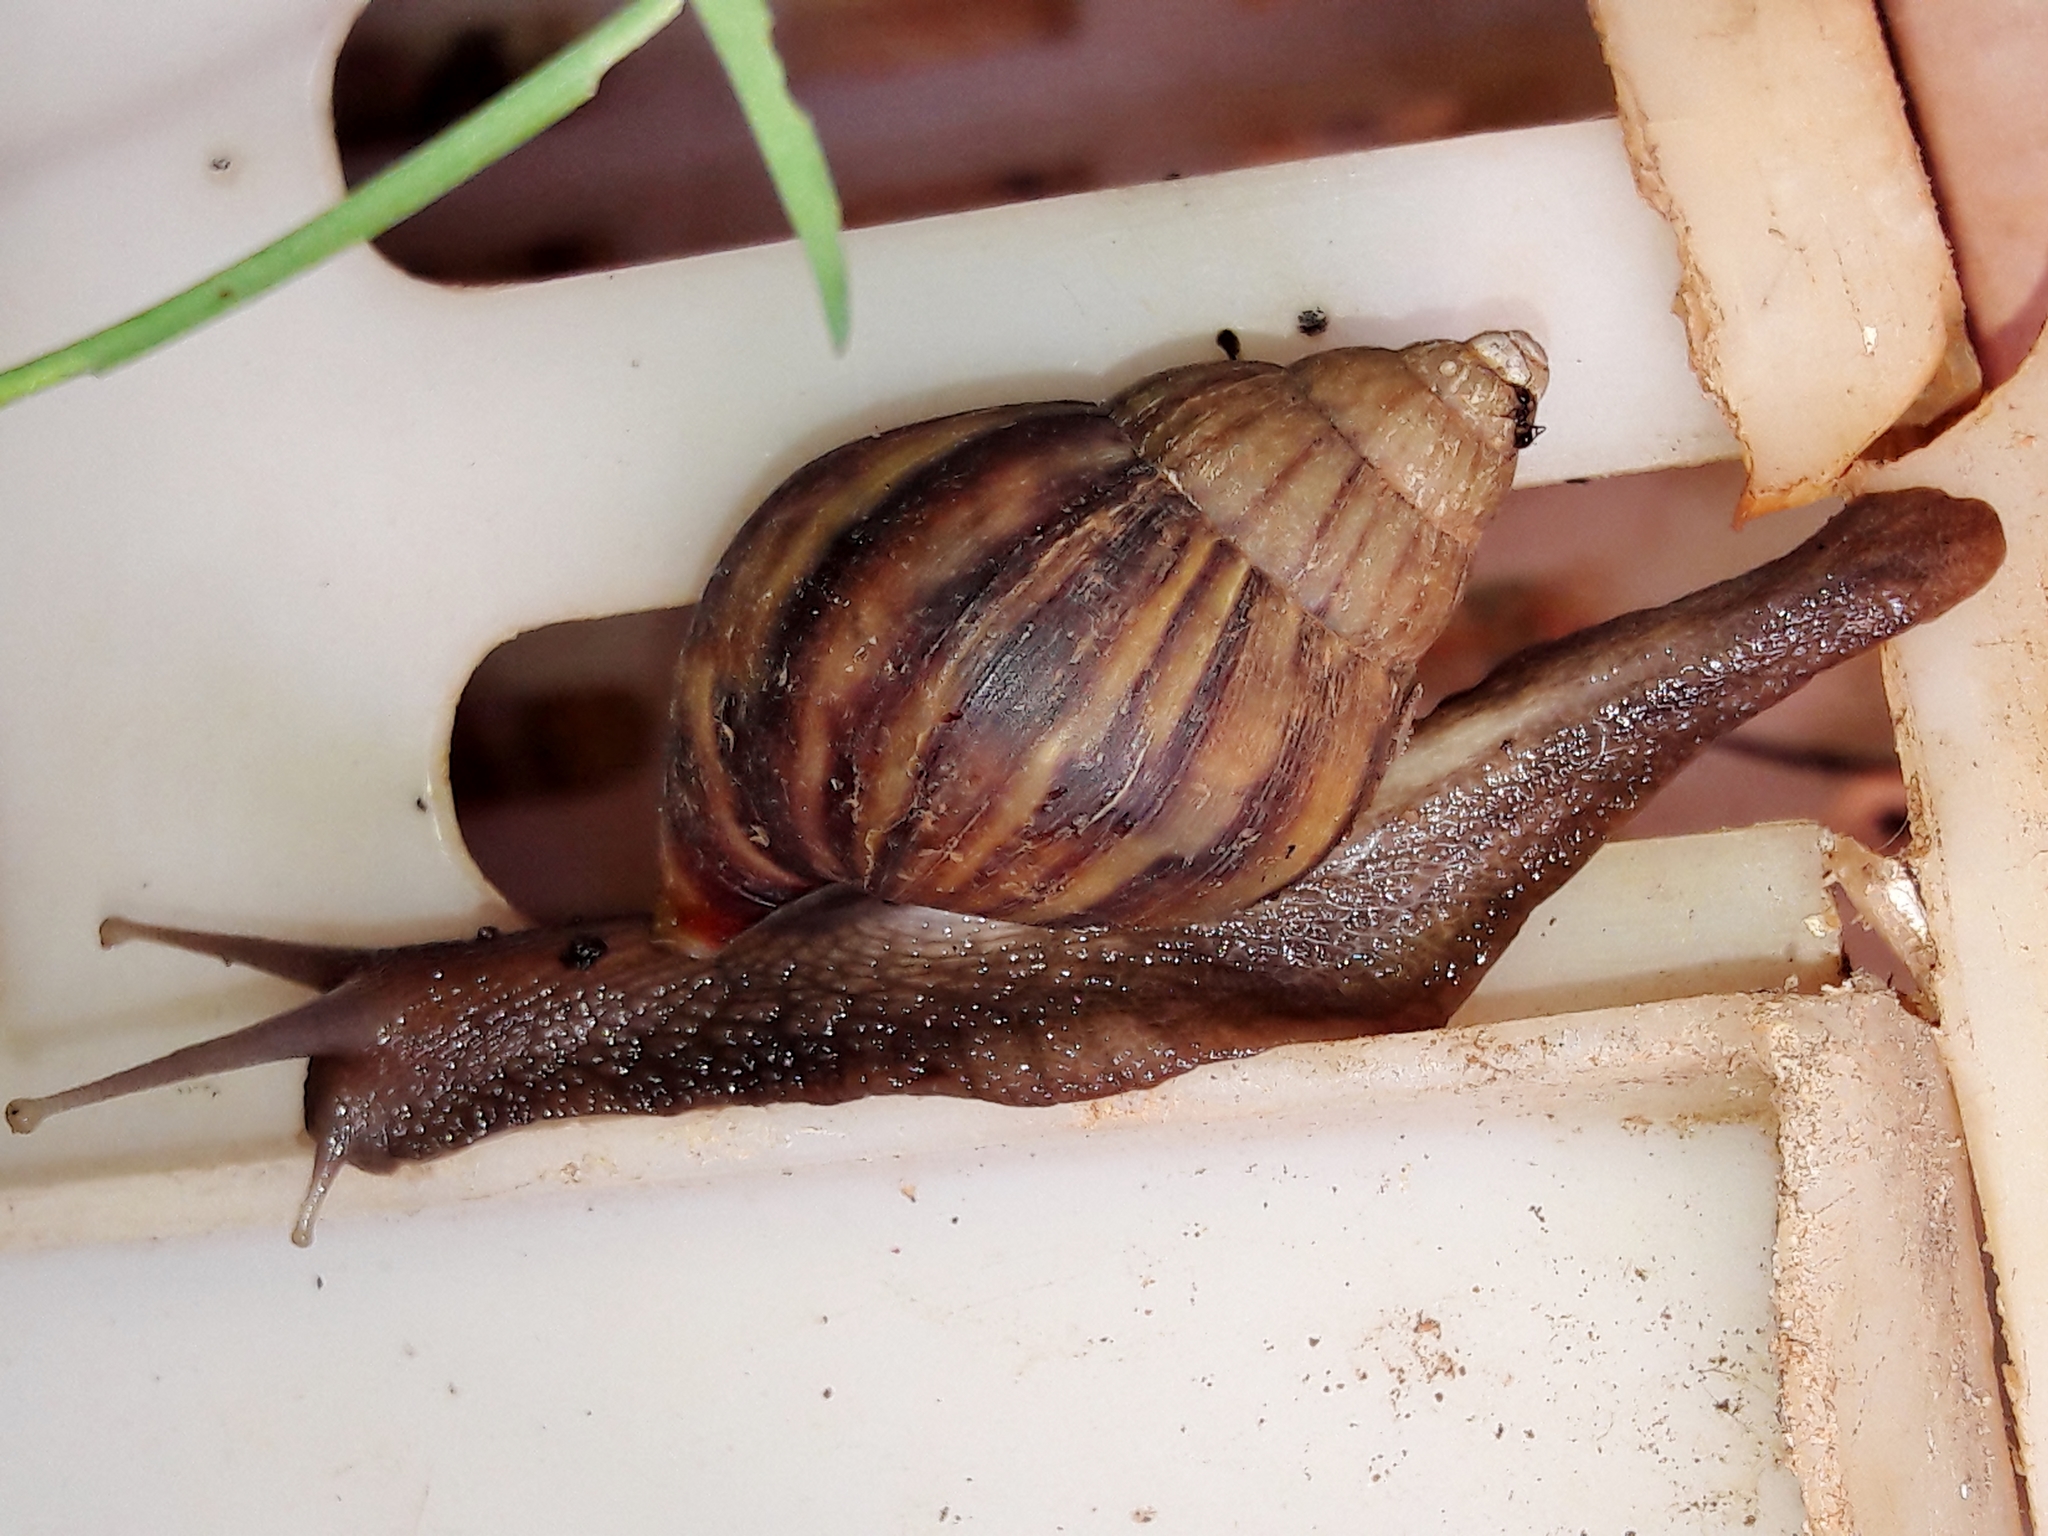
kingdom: Animalia
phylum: Mollusca
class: Gastropoda
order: Stylommatophora
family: Achatinidae
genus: Lissachatina
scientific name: Lissachatina fulica
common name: Giant african snail
